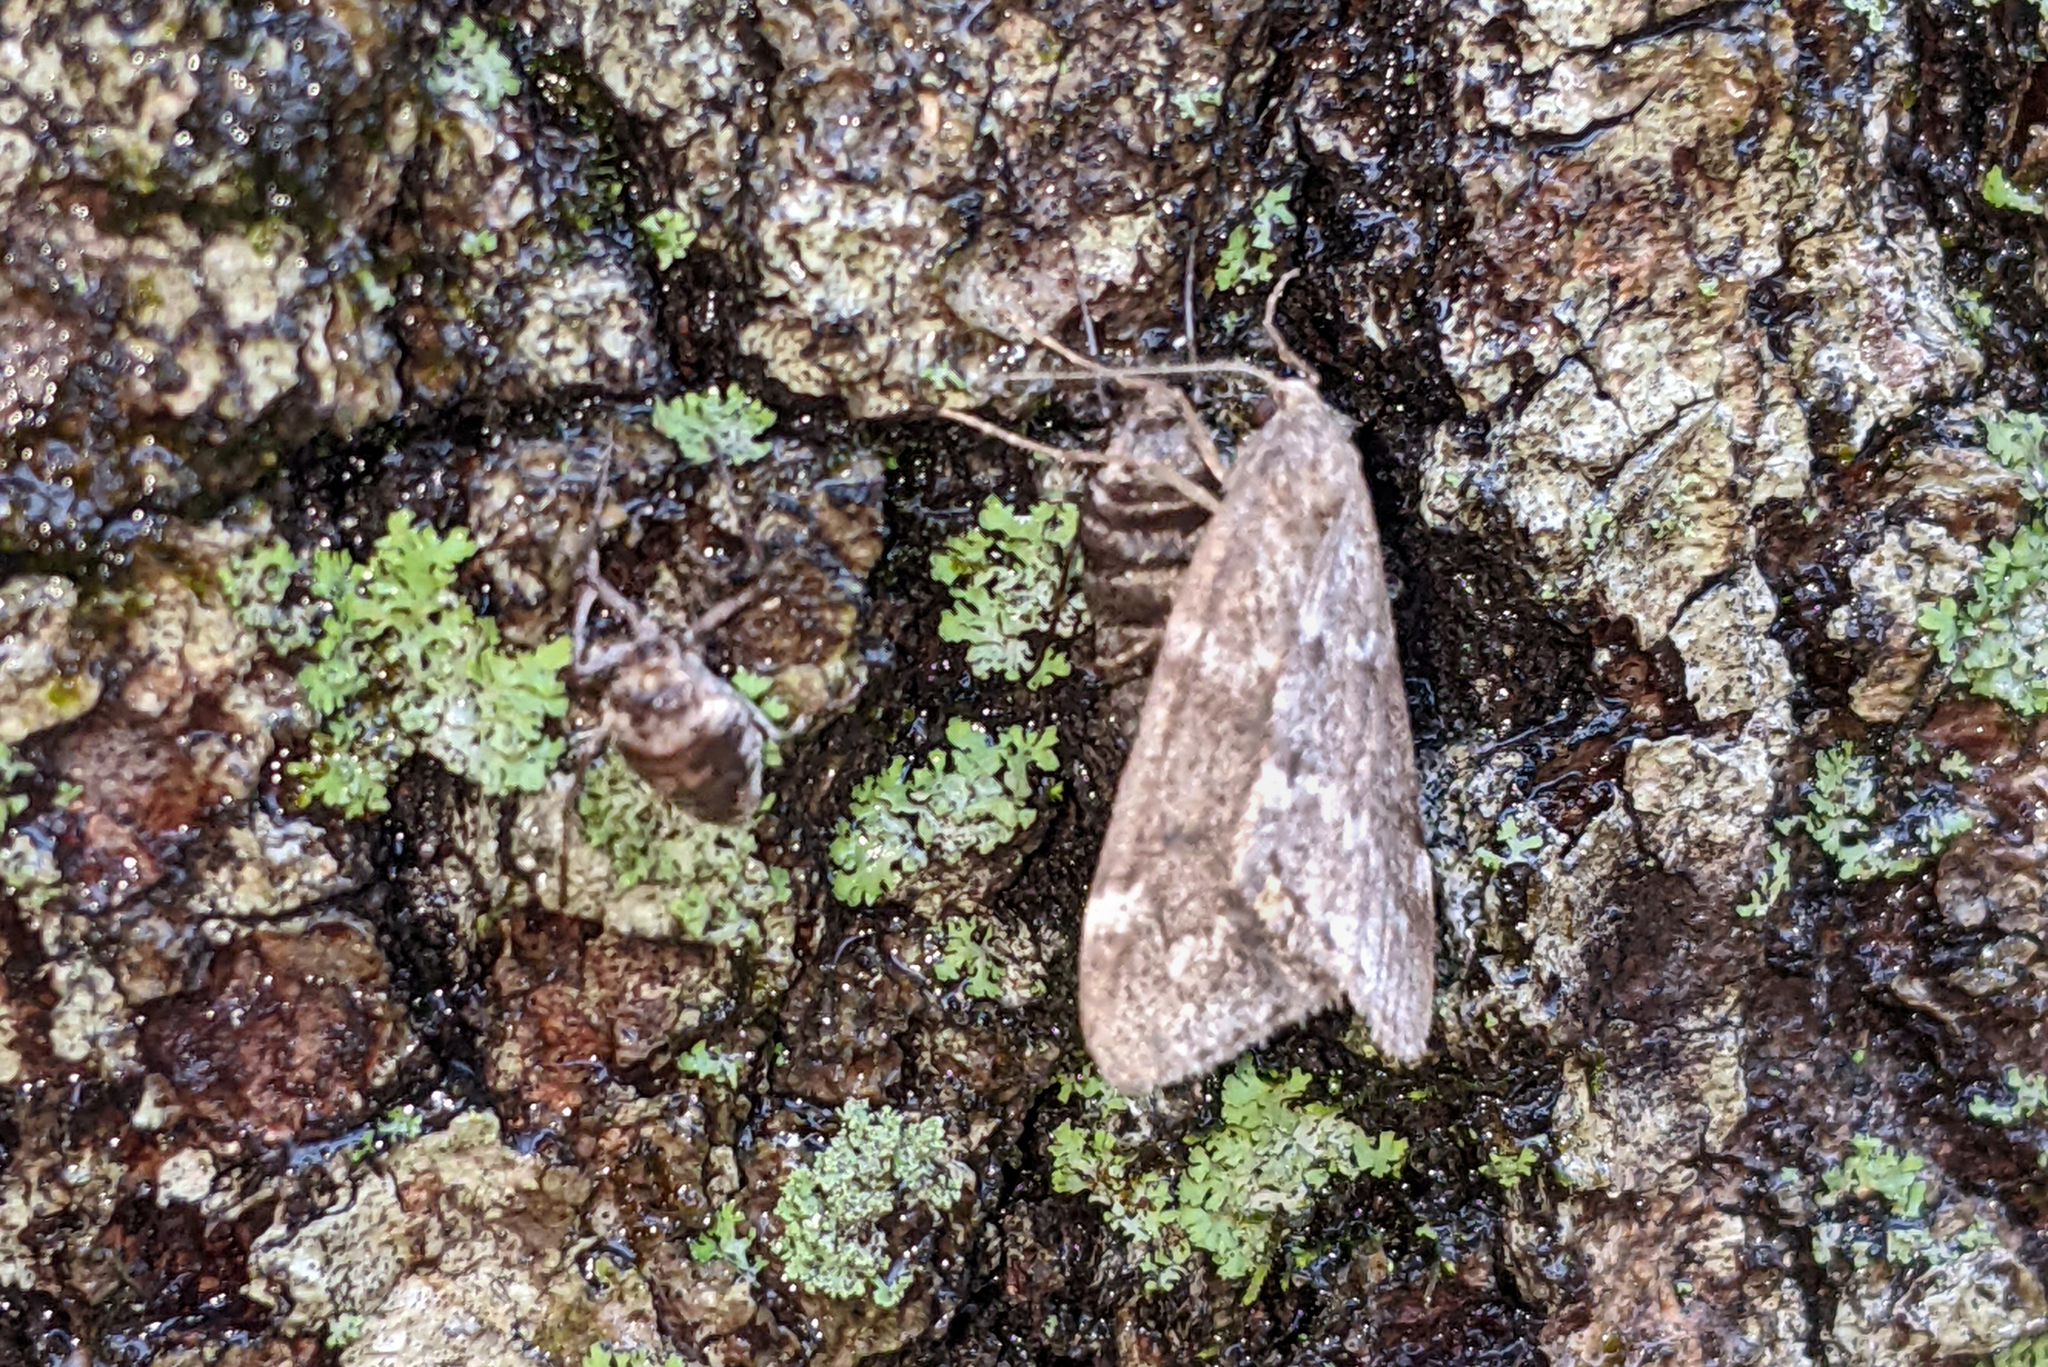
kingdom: Animalia
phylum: Arthropoda
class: Insecta
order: Lepidoptera
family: Geometridae
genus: Alsophila
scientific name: Alsophila pometaria
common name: Fall cankerworm
